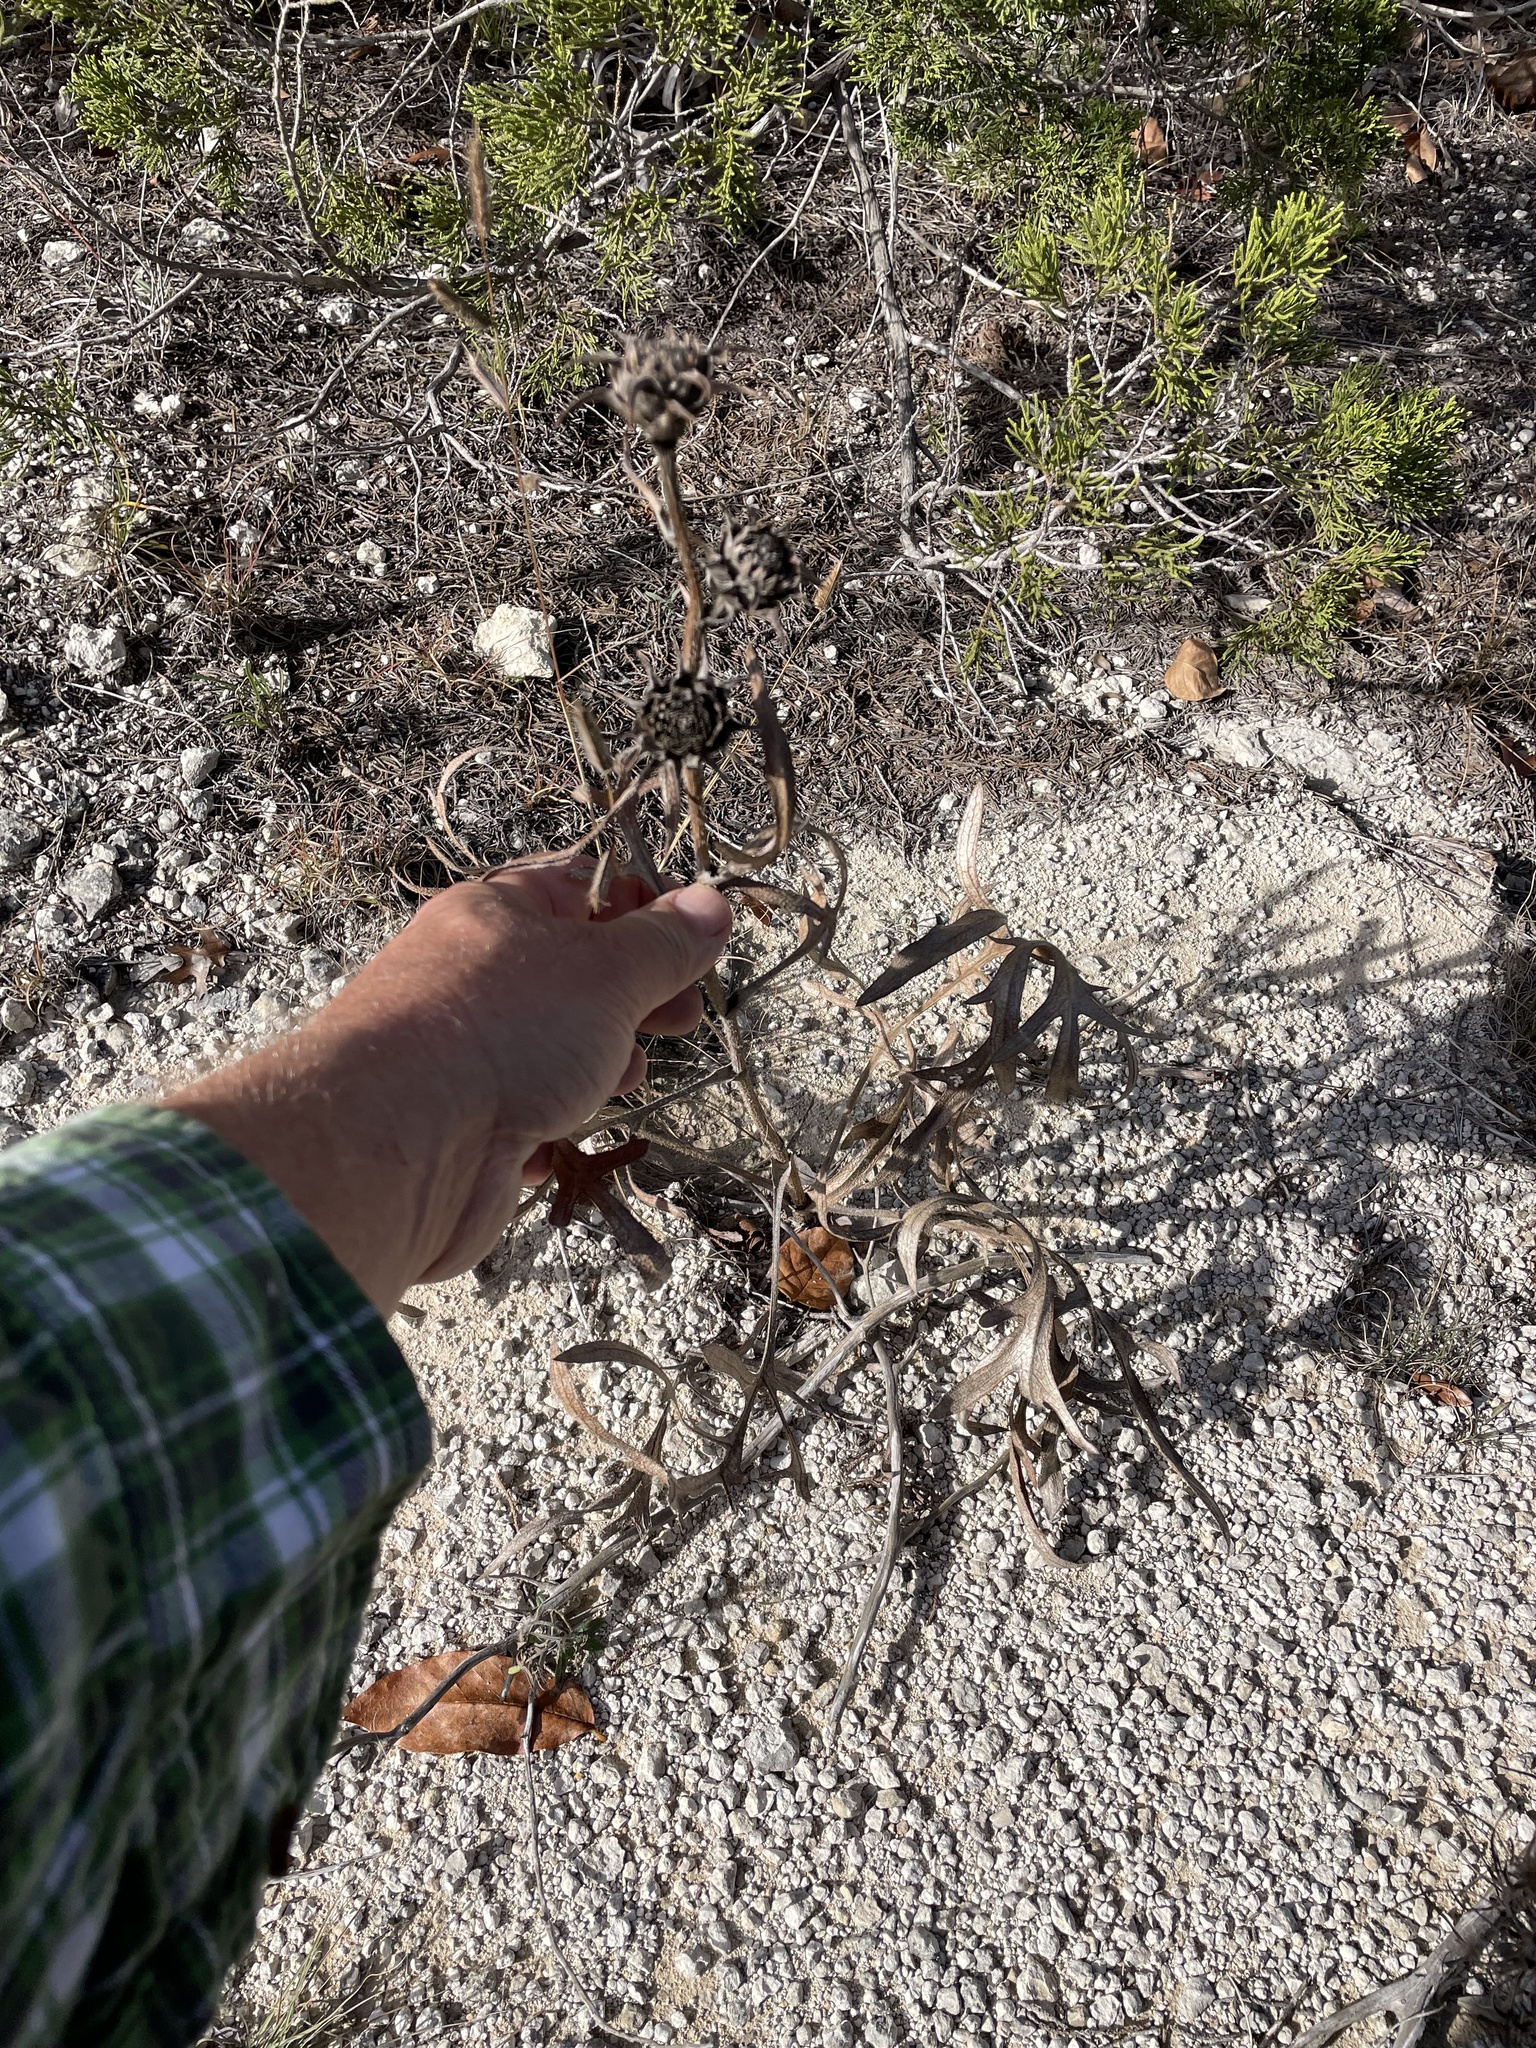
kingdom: Plantae
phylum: Tracheophyta
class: Magnoliopsida
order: Asterales
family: Asteraceae
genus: Silphium
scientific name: Silphium albiflorum
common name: White rosinweed
